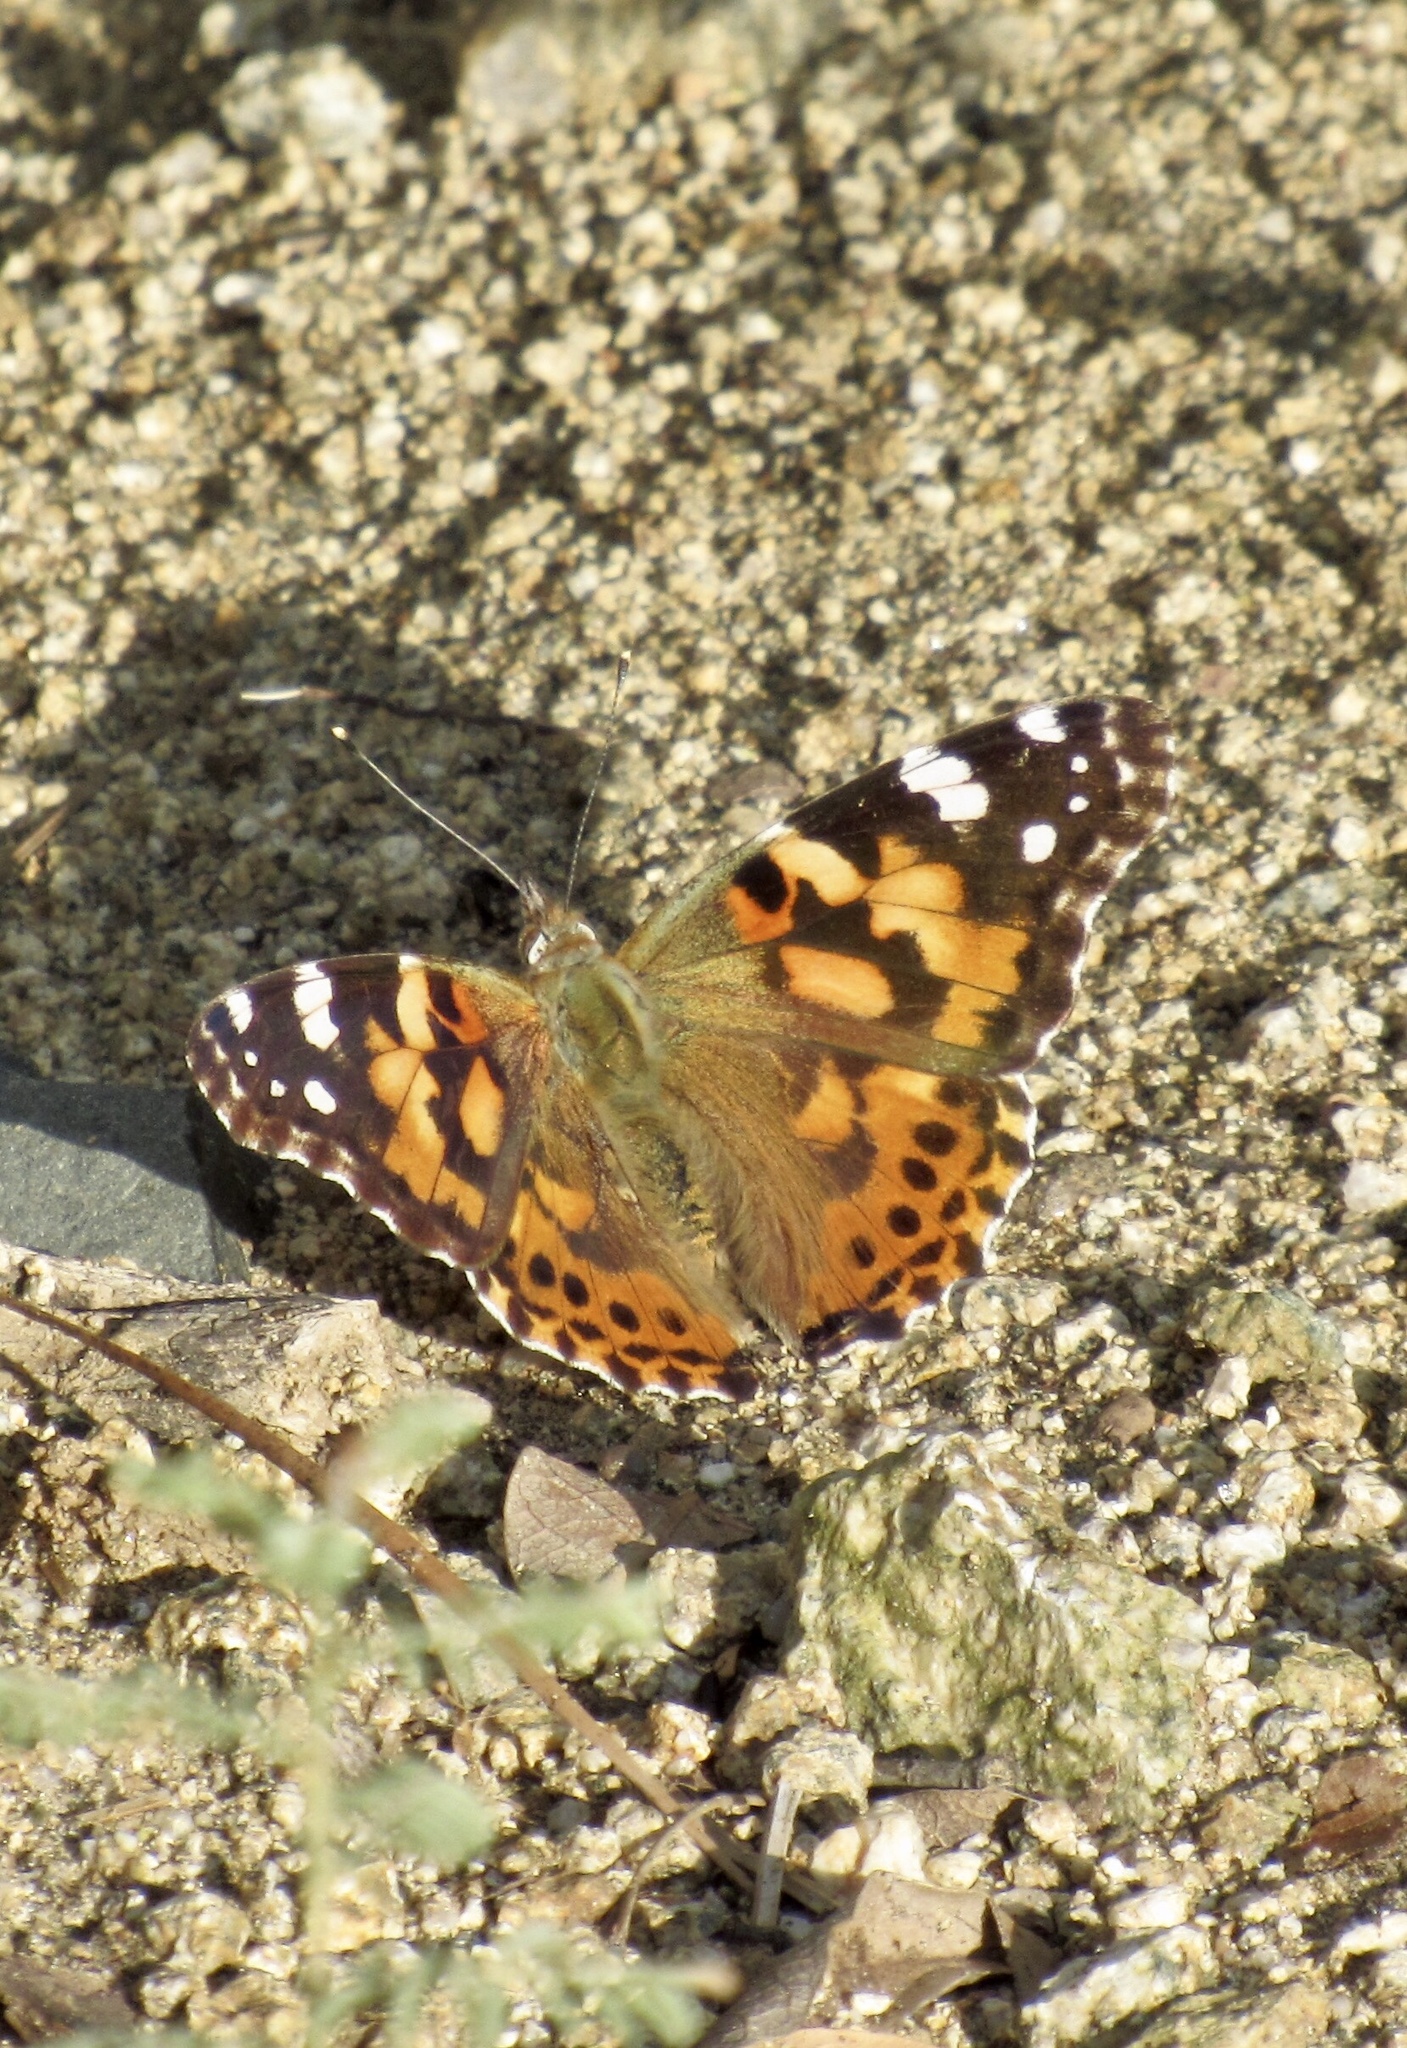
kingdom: Animalia
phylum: Arthropoda
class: Insecta
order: Lepidoptera
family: Nymphalidae
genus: Vanessa
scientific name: Vanessa cardui
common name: Painted lady
